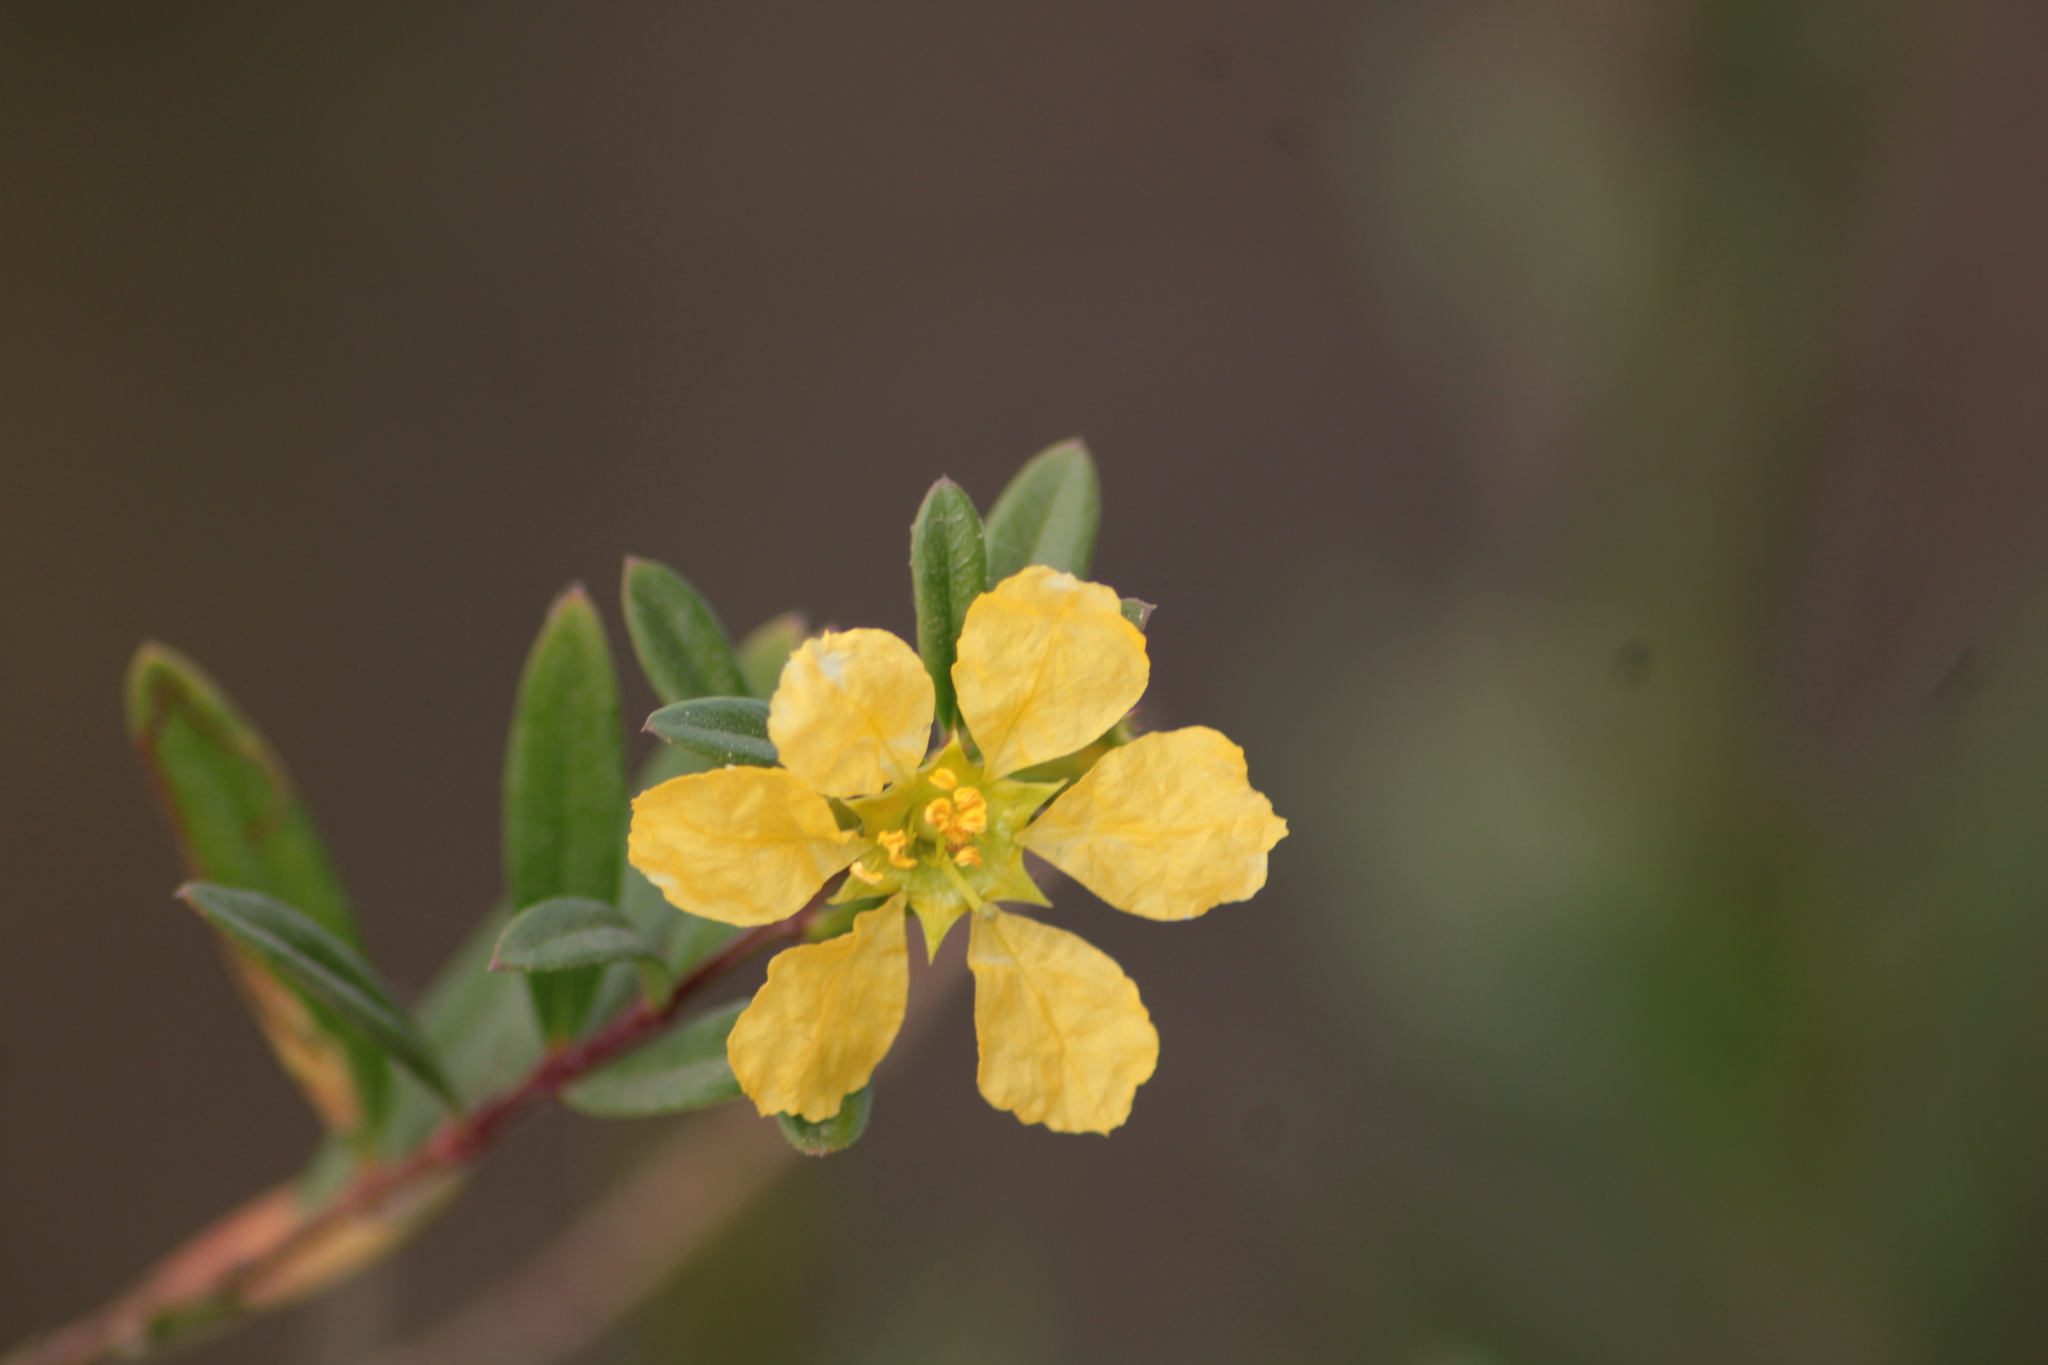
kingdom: Plantae
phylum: Tracheophyta
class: Magnoliopsida
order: Myrtales
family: Lythraceae
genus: Heimia
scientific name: Heimia salicifolia
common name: Willow-leaf heimia
